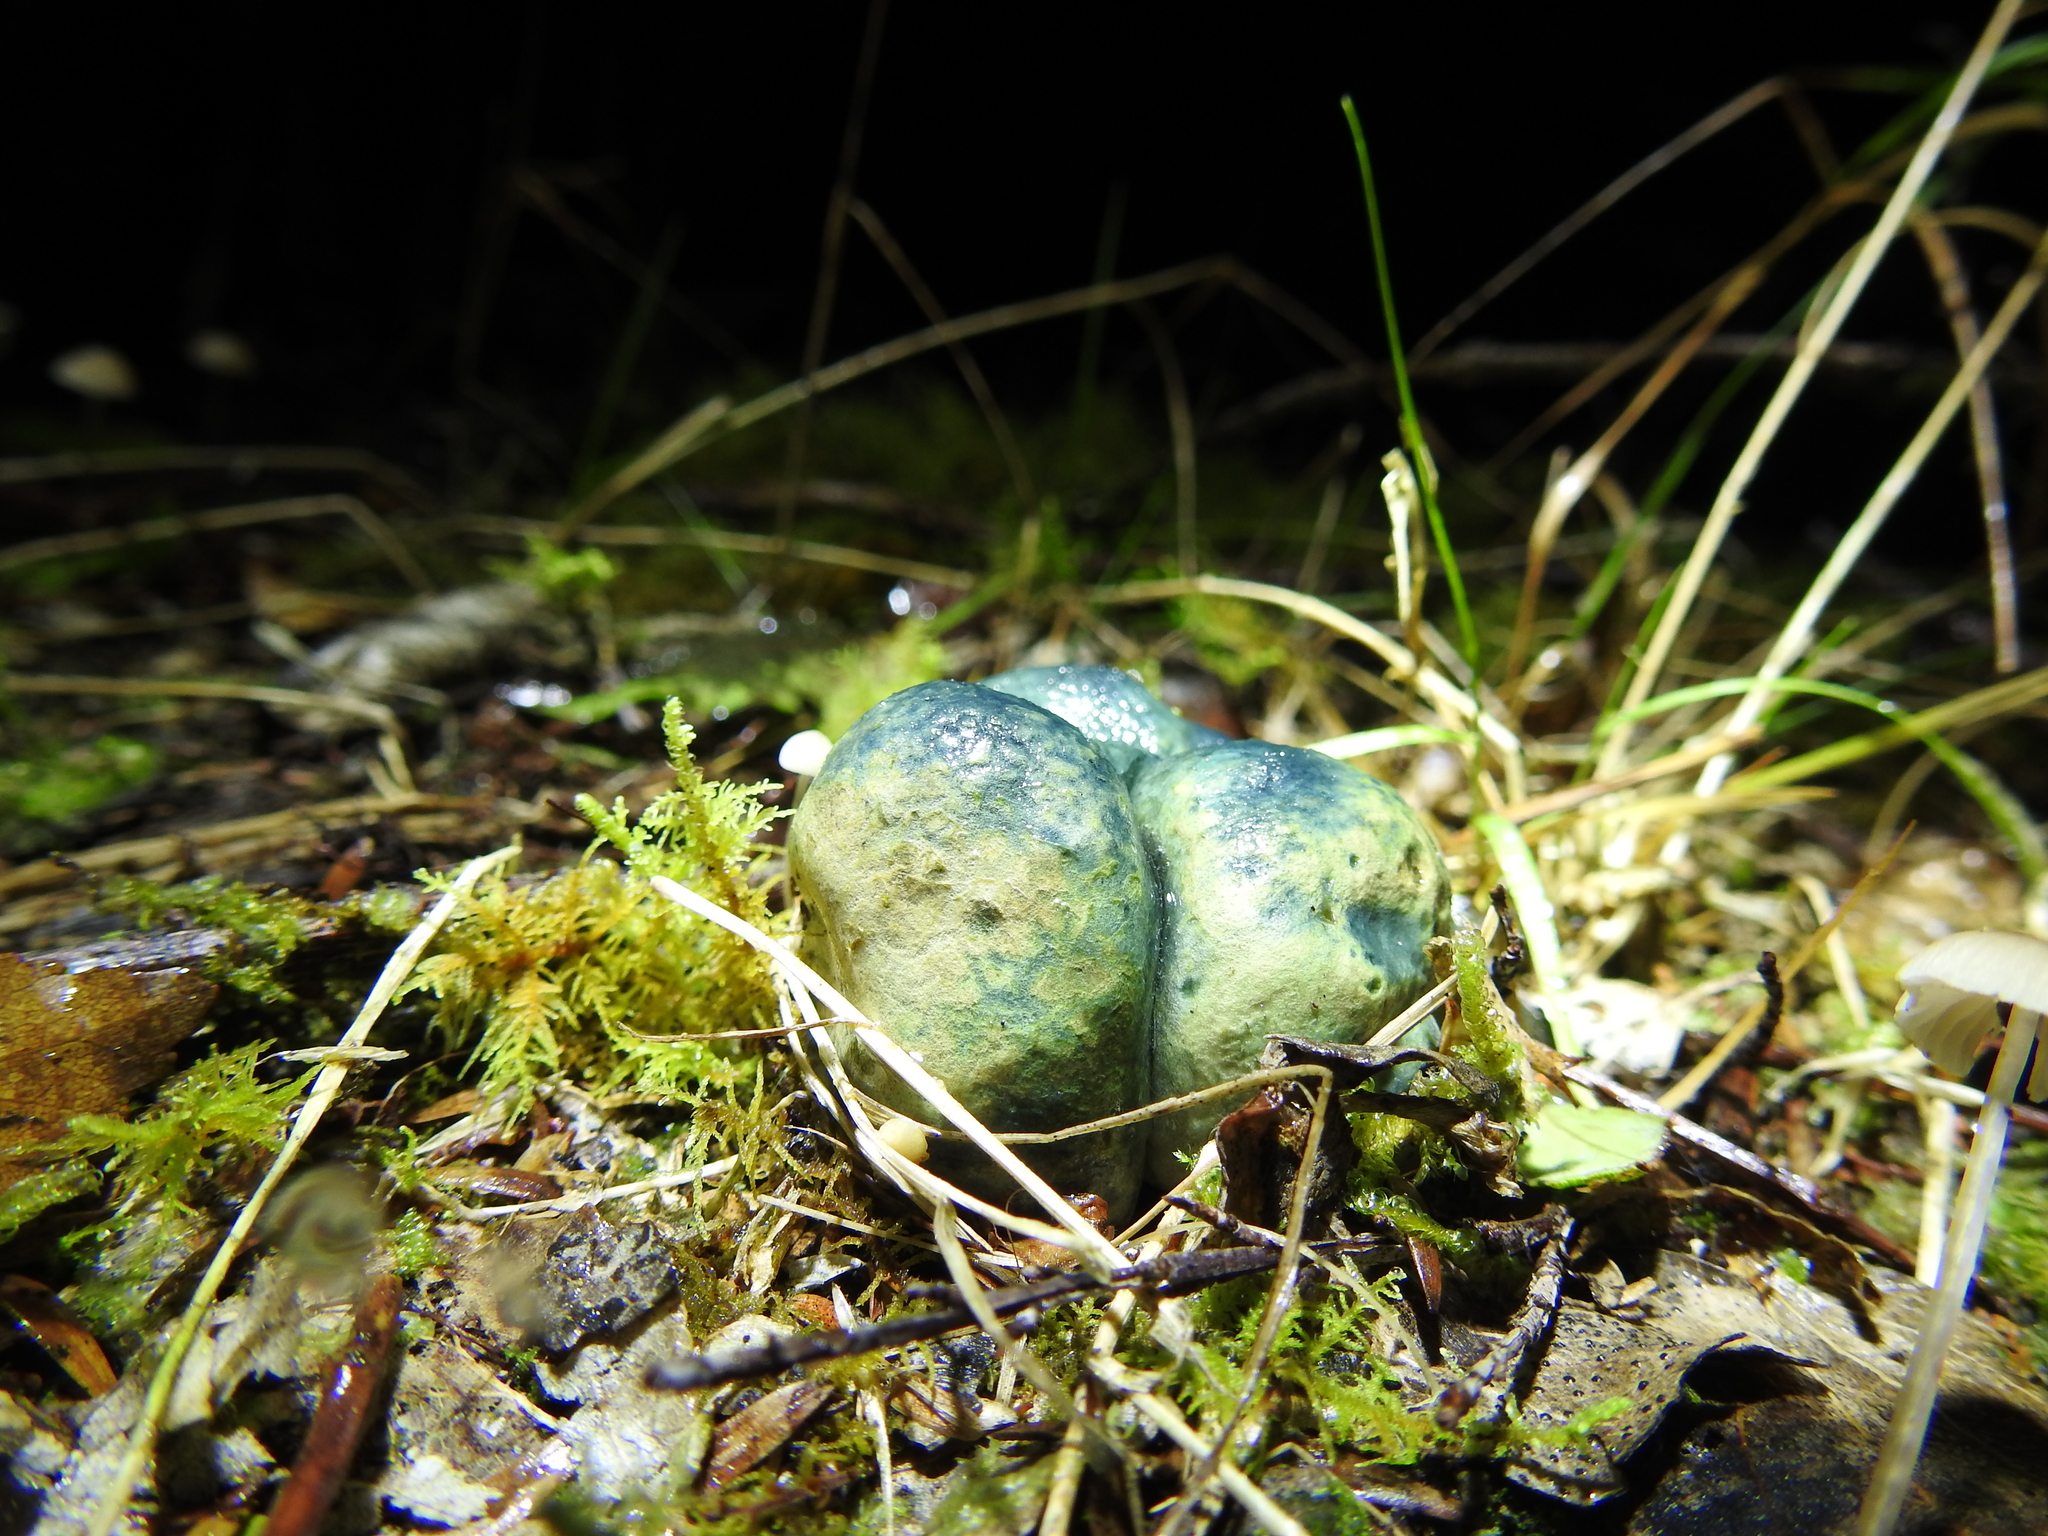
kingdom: Fungi
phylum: Basidiomycota
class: Agaricomycetes
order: Boletales
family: Boletaceae
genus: Leccinum
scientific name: Leccinum pachyderme
